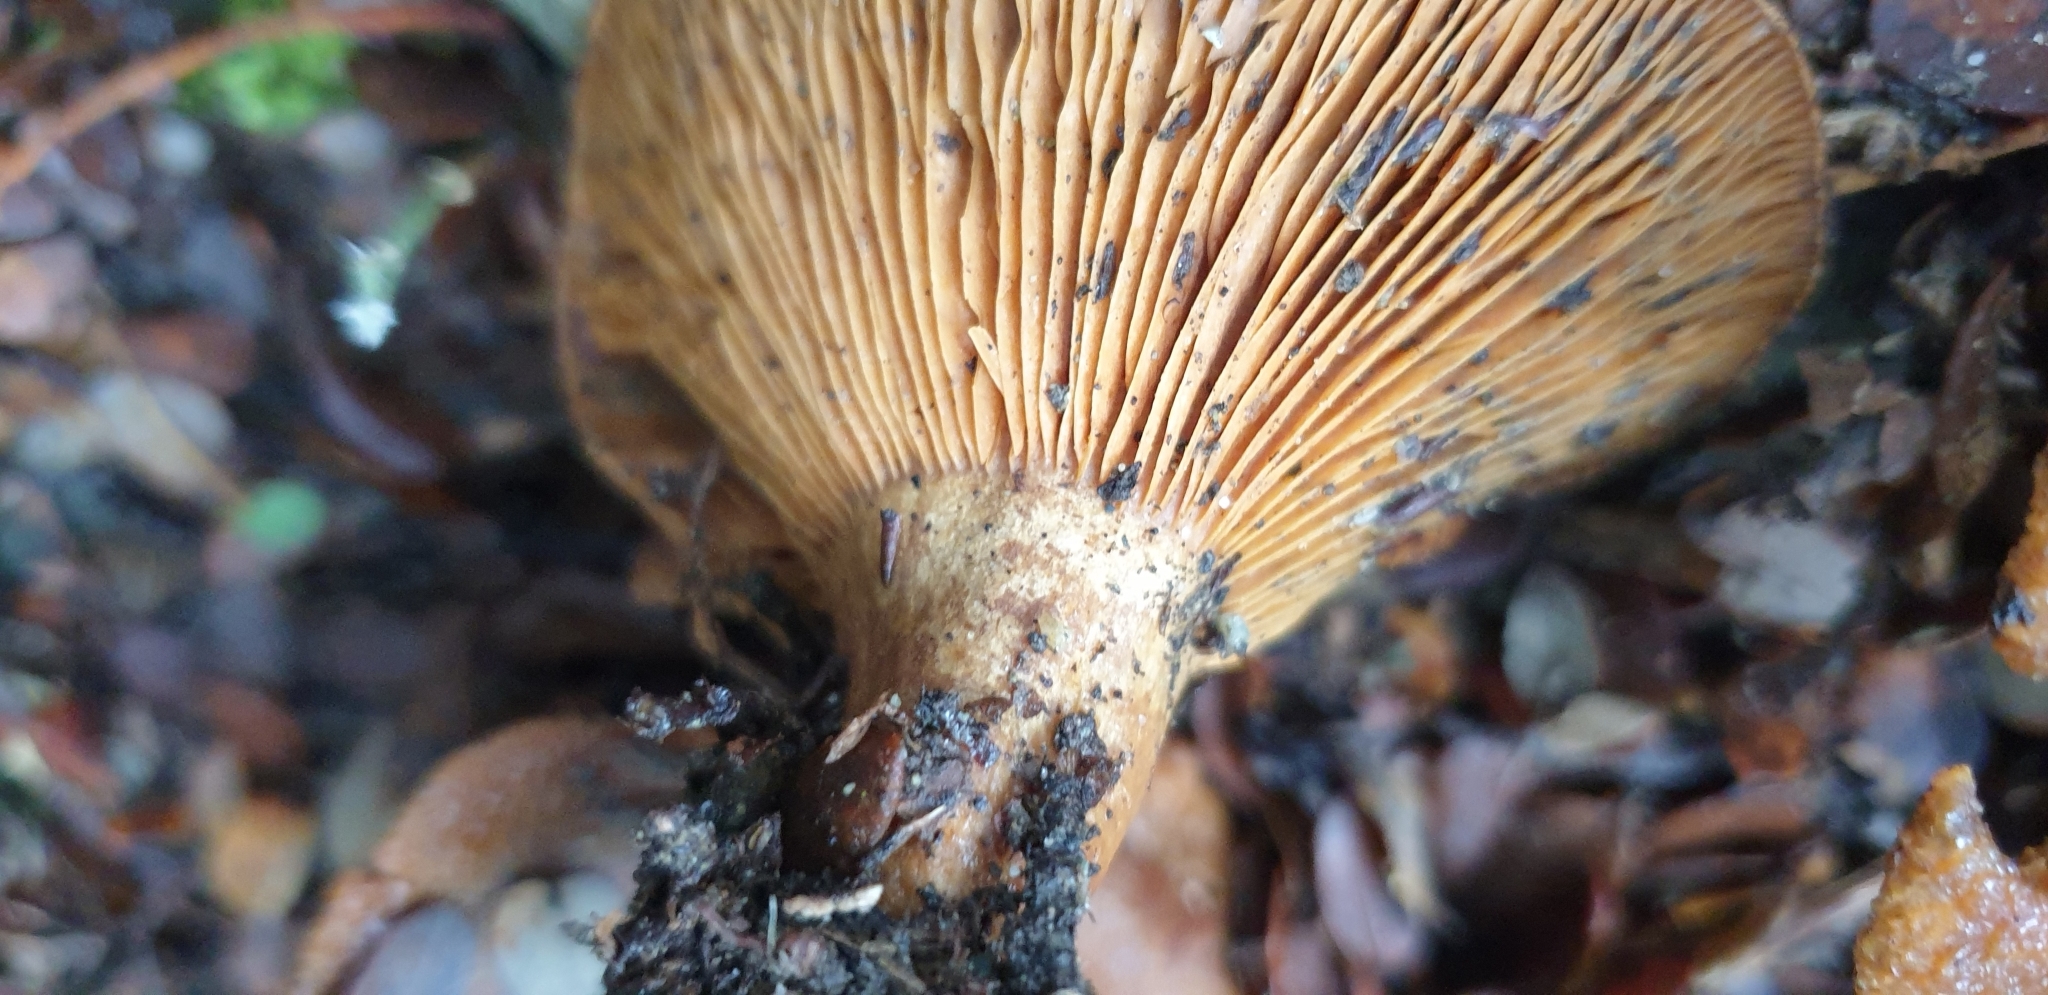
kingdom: Fungi
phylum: Basidiomycota
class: Agaricomycetes
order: Russulales
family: Russulaceae
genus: Lactarius
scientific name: Lactarius tawai
